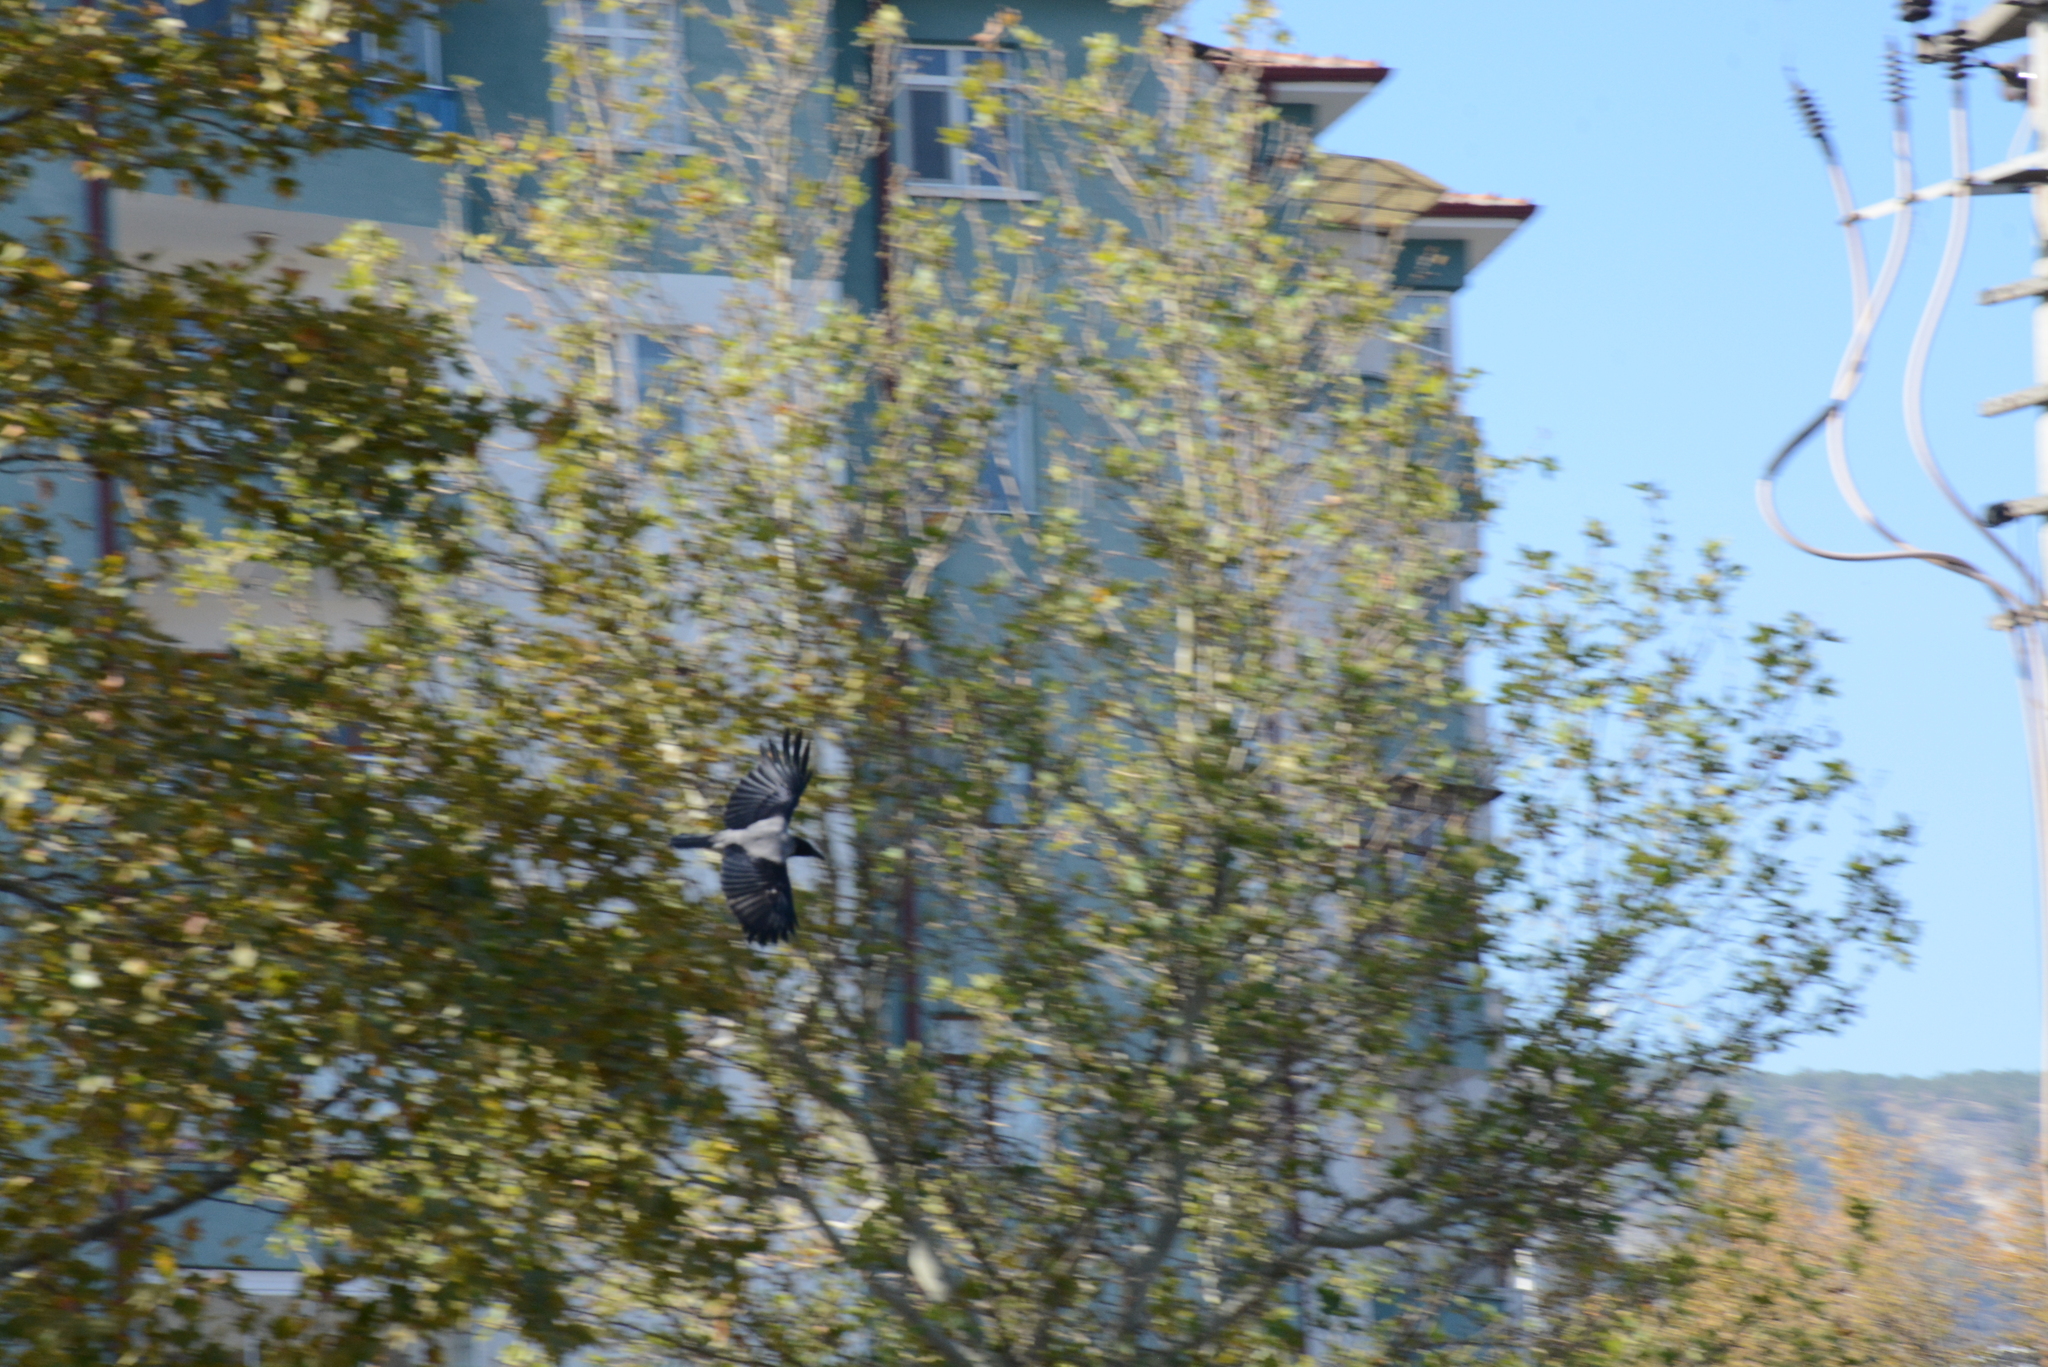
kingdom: Animalia
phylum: Chordata
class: Aves
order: Passeriformes
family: Corvidae
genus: Corvus
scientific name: Corvus cornix
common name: Hooded crow
